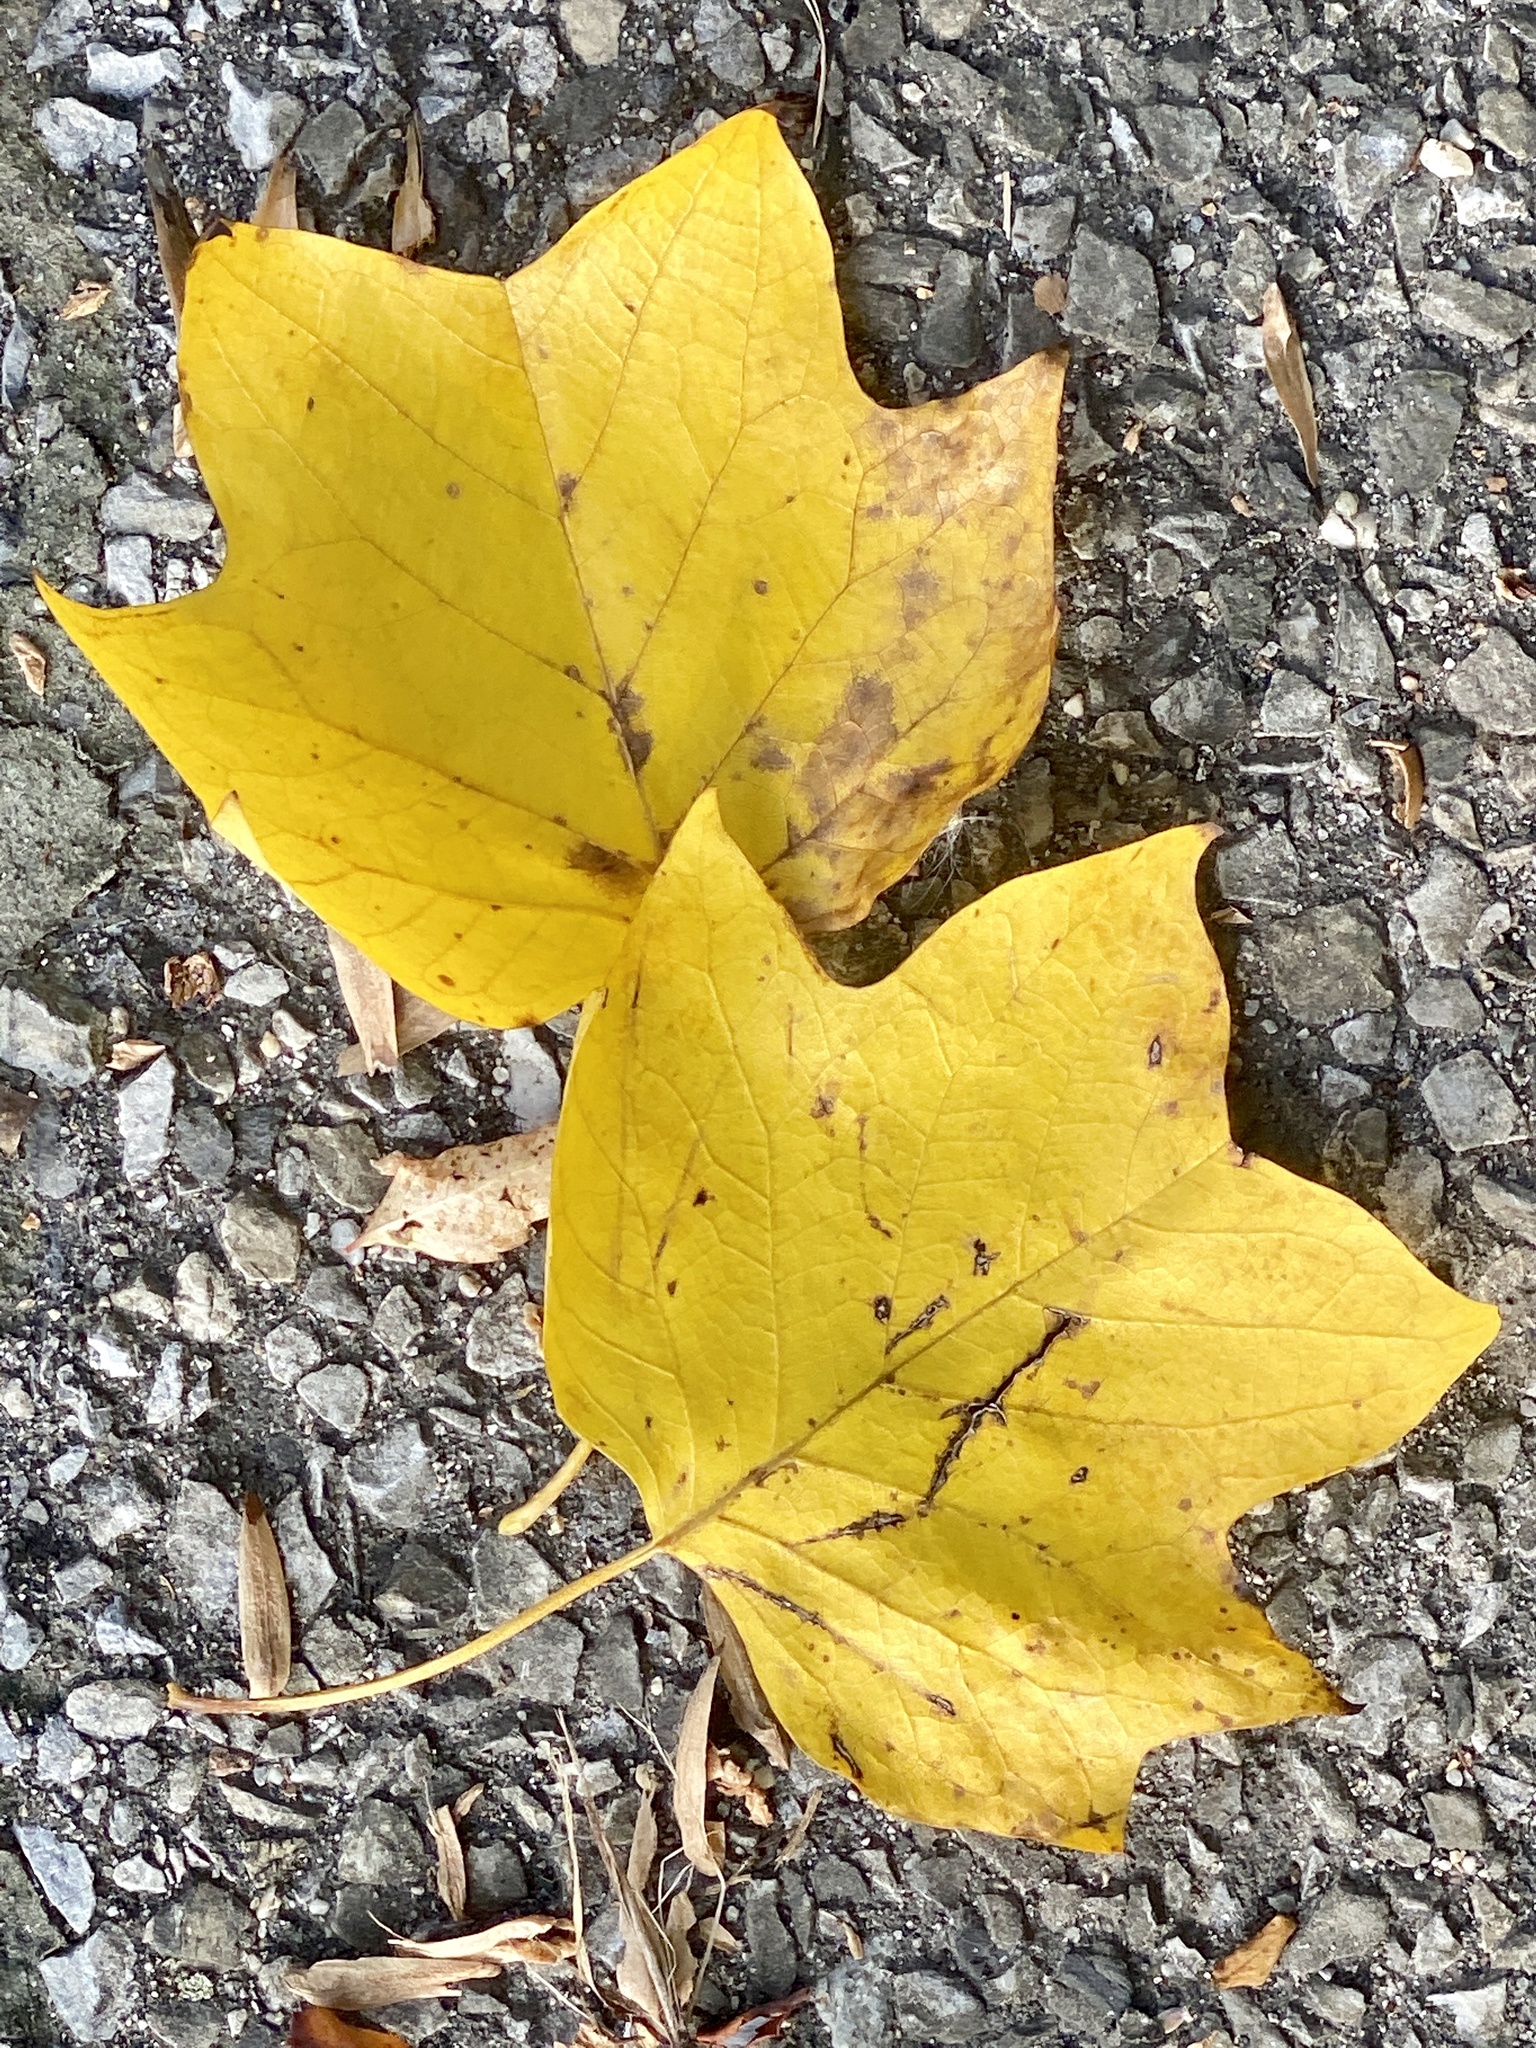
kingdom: Plantae
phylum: Tracheophyta
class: Magnoliopsida
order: Magnoliales
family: Magnoliaceae
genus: Liriodendron
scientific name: Liriodendron tulipifera
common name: Tulip tree
